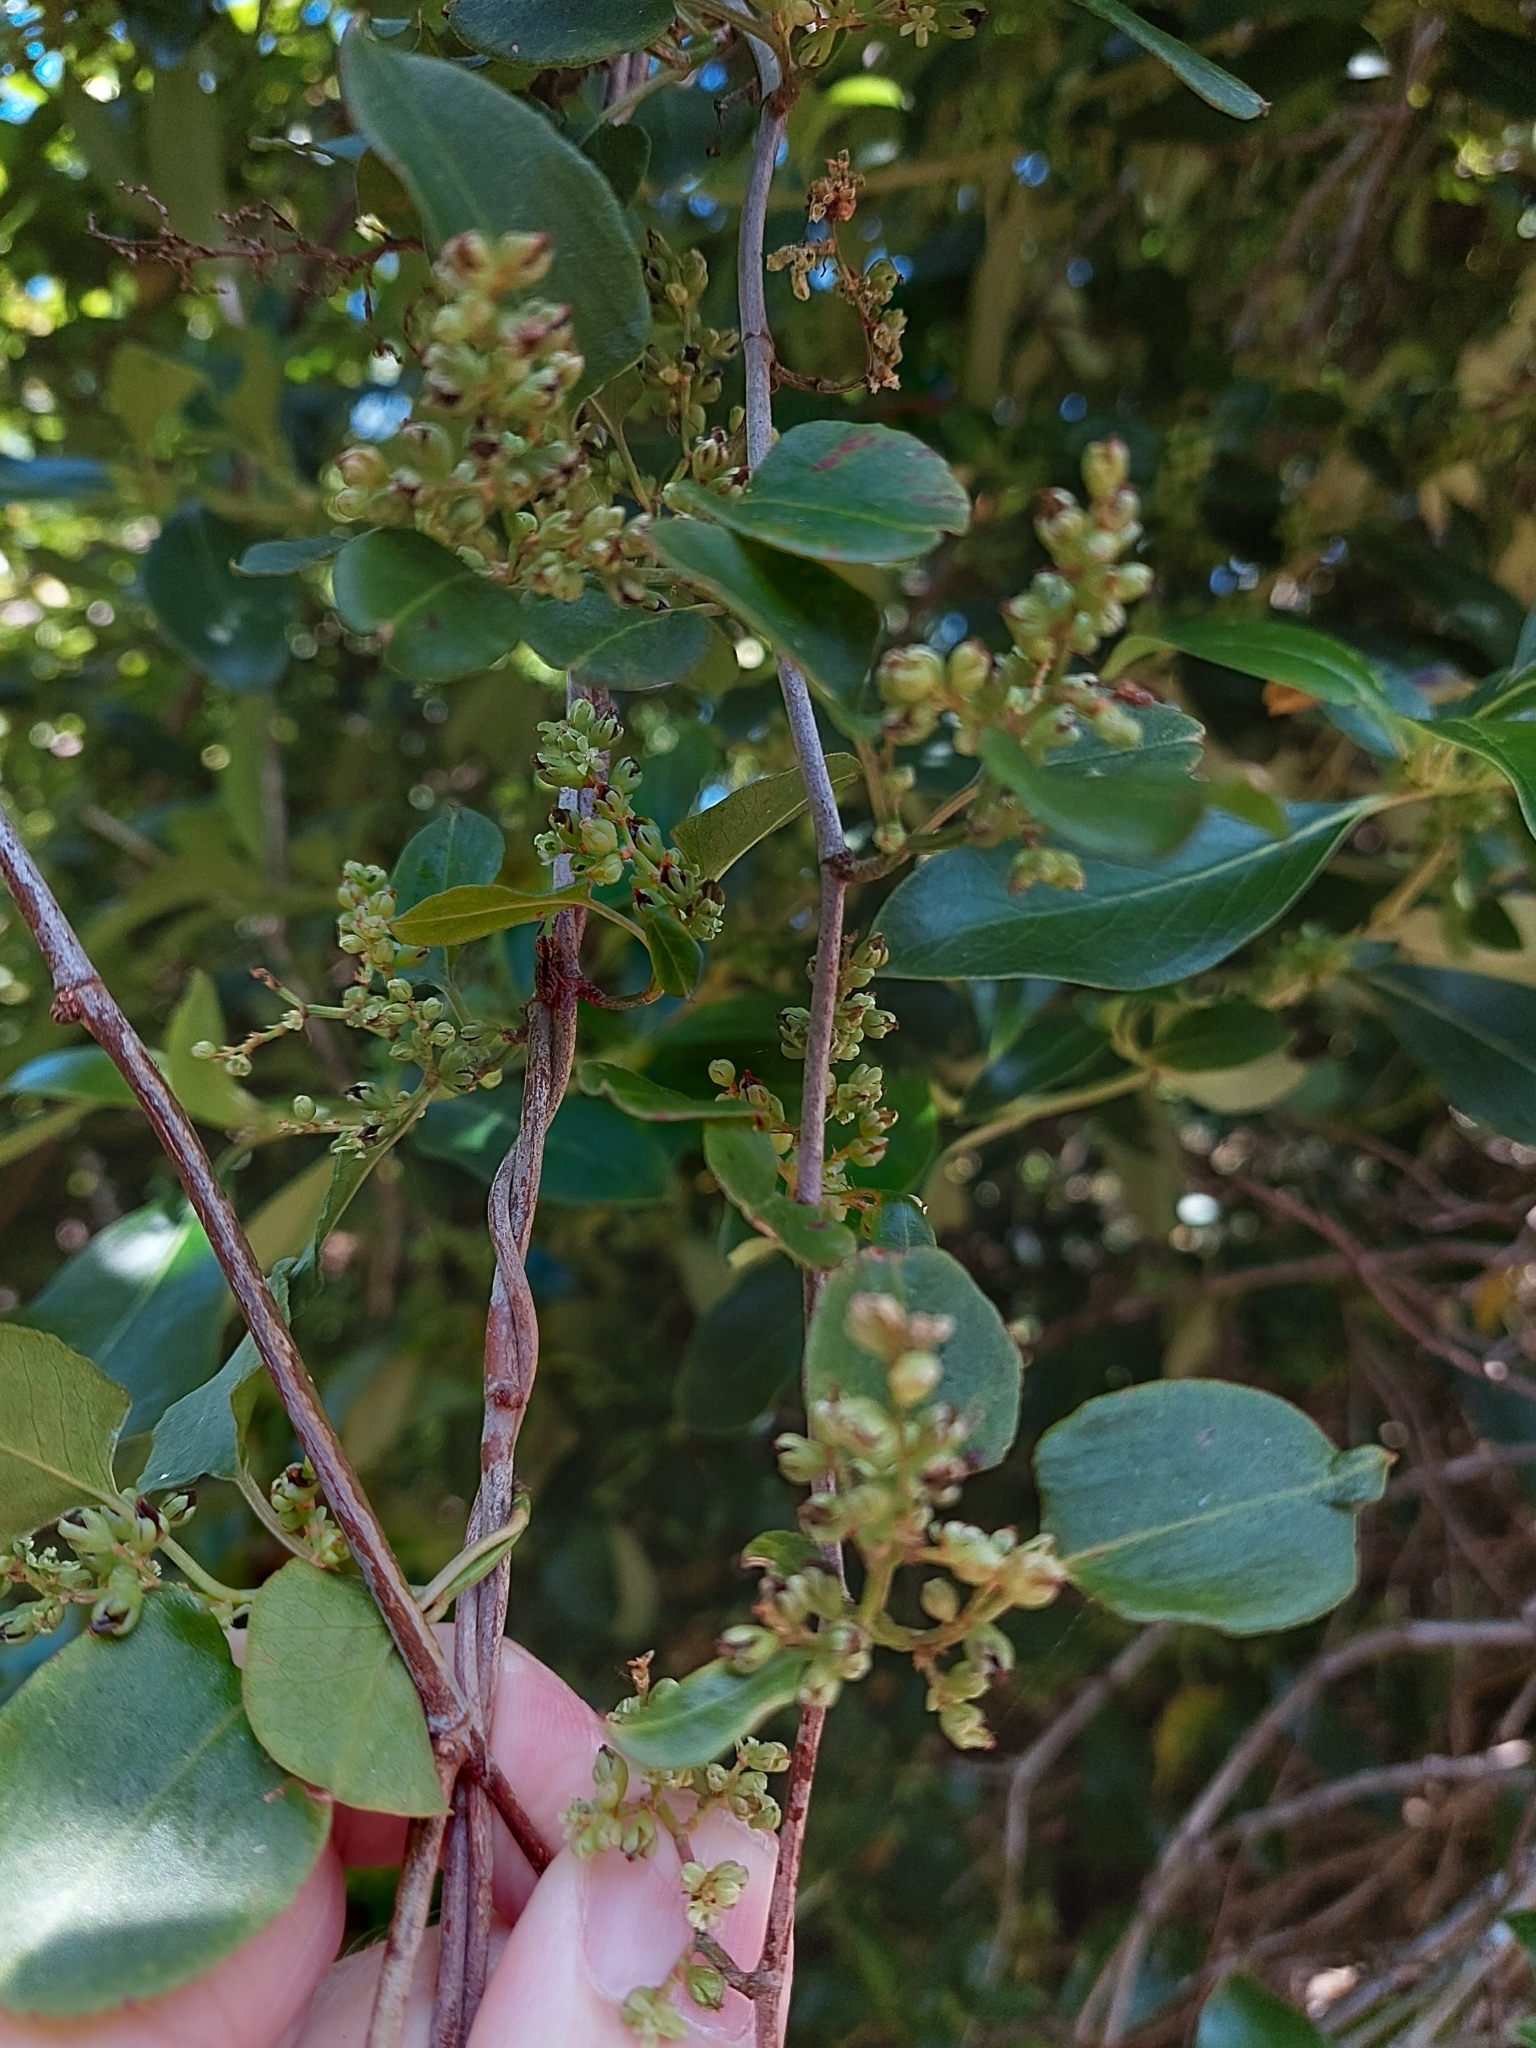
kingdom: Plantae
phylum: Tracheophyta
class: Magnoliopsida
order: Caryophyllales
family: Polygonaceae
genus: Muehlenbeckia
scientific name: Muehlenbeckia australis
